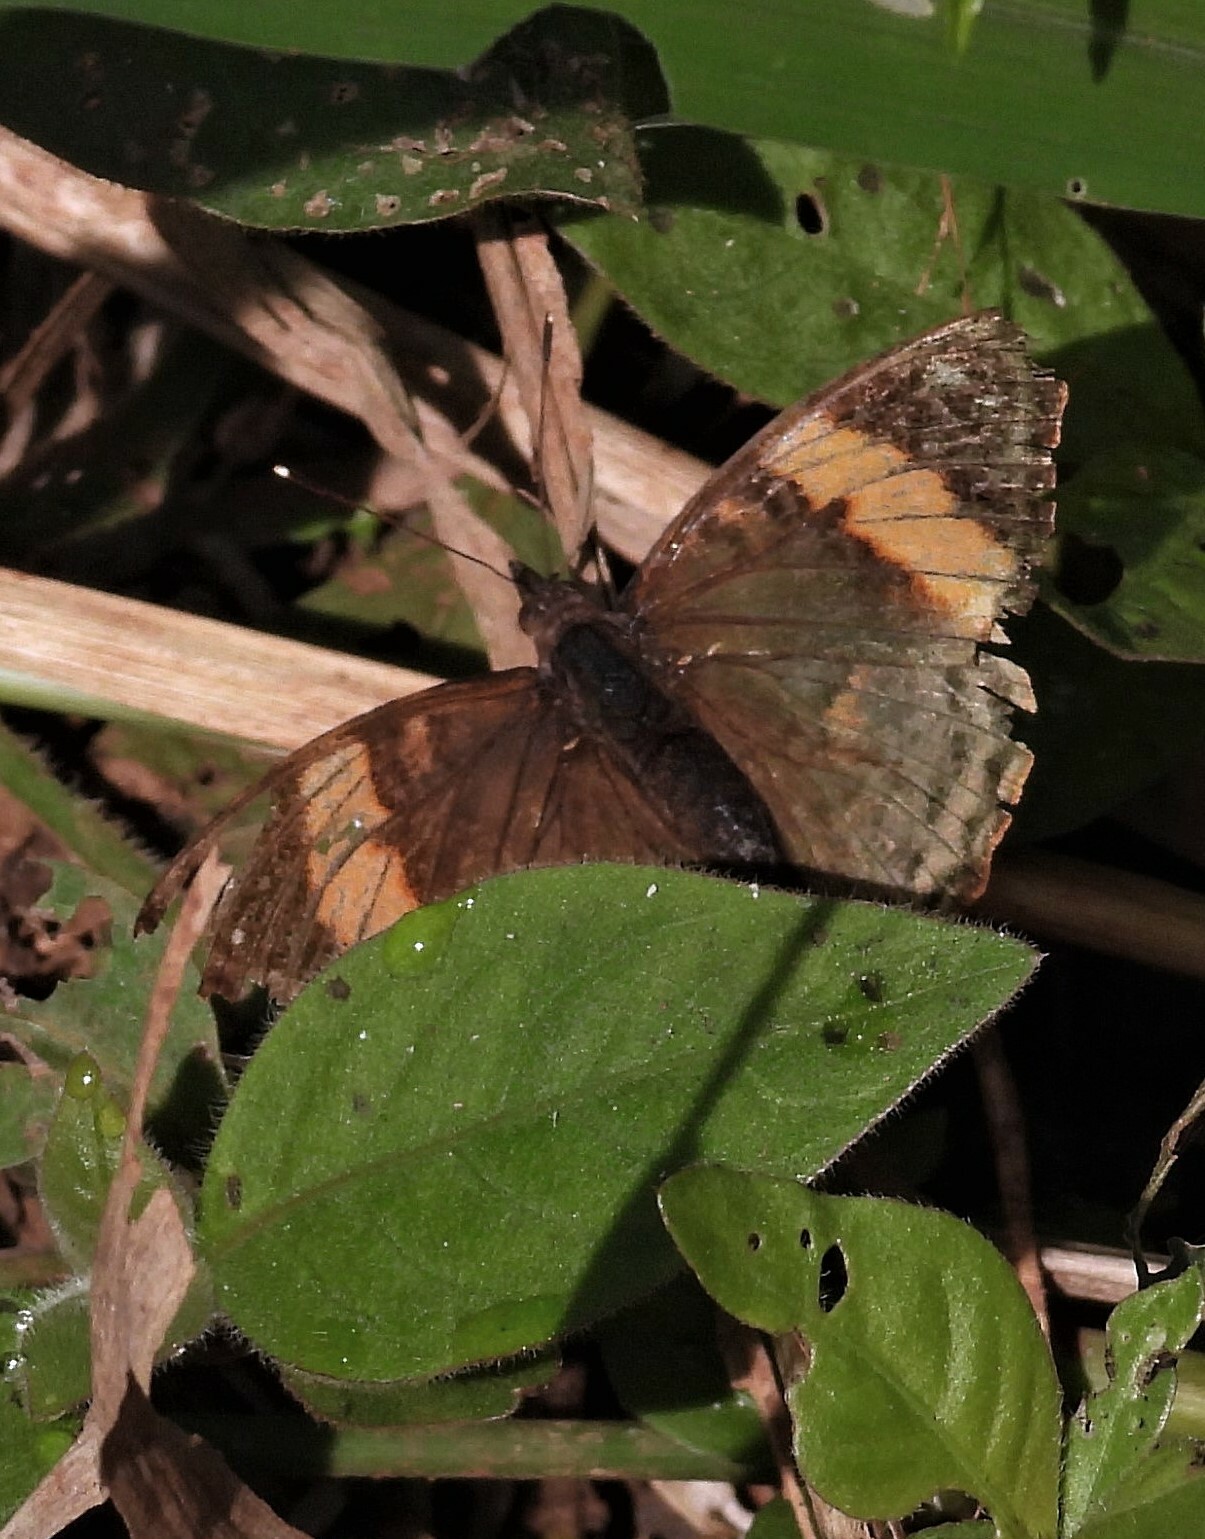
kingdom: Animalia
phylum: Arthropoda
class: Insecta
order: Lepidoptera
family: Nymphalidae
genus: Doxocopa
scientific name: Doxocopa agathina
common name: Agathina emperor
